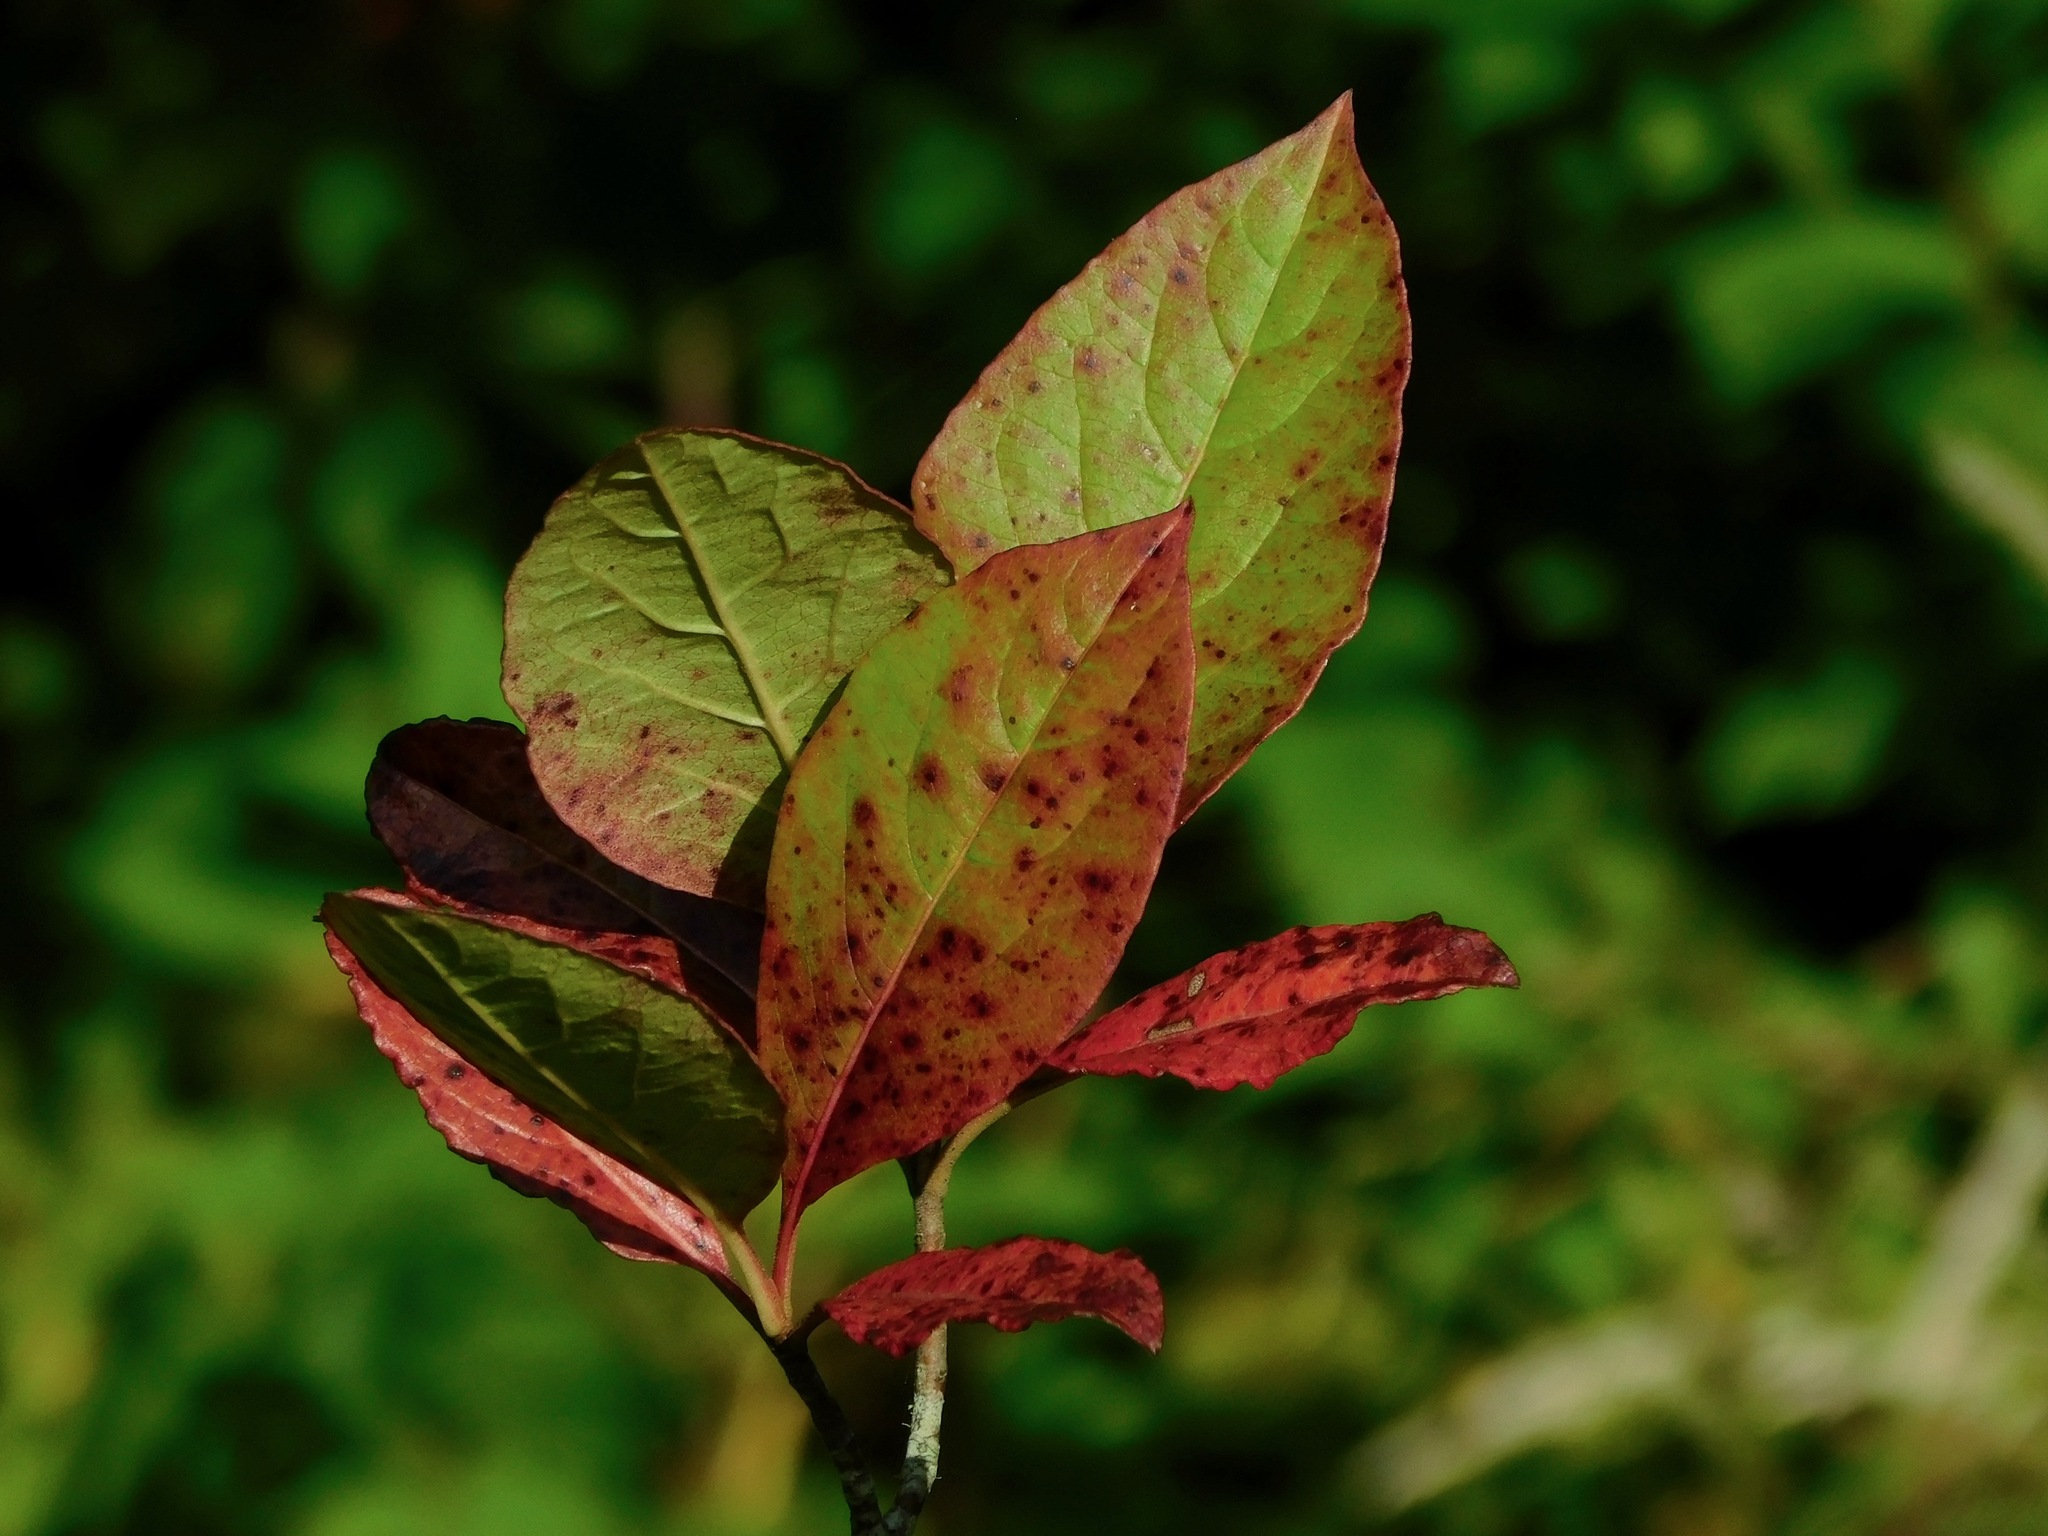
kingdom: Plantae
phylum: Tracheophyta
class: Magnoliopsida
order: Dipsacales
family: Viburnaceae
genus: Viburnum
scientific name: Viburnum nudum
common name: Possum haw
